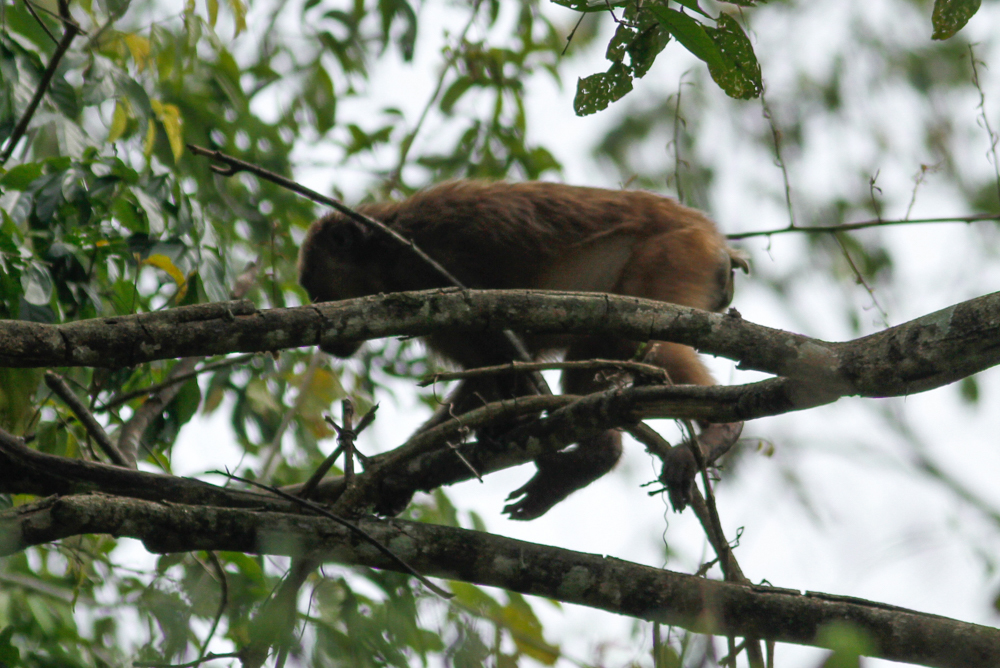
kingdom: Animalia
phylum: Chordata
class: Mammalia
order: Primates
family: Cercopithecidae
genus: Macaca
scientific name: Macaca arctoides
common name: Stump-tailed macaque
